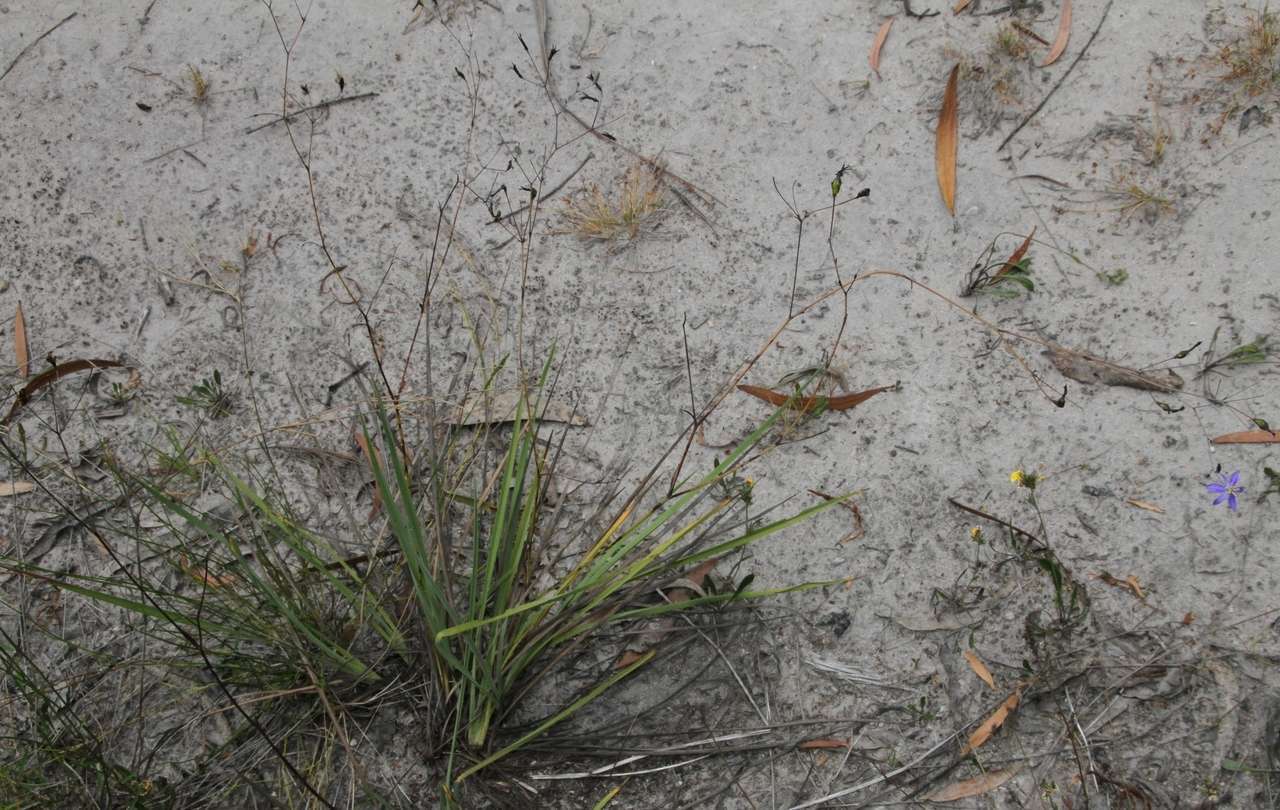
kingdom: Plantae
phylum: Tracheophyta
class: Liliopsida
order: Asparagales
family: Asphodelaceae
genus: Thelionema
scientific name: Thelionema caespitosum
